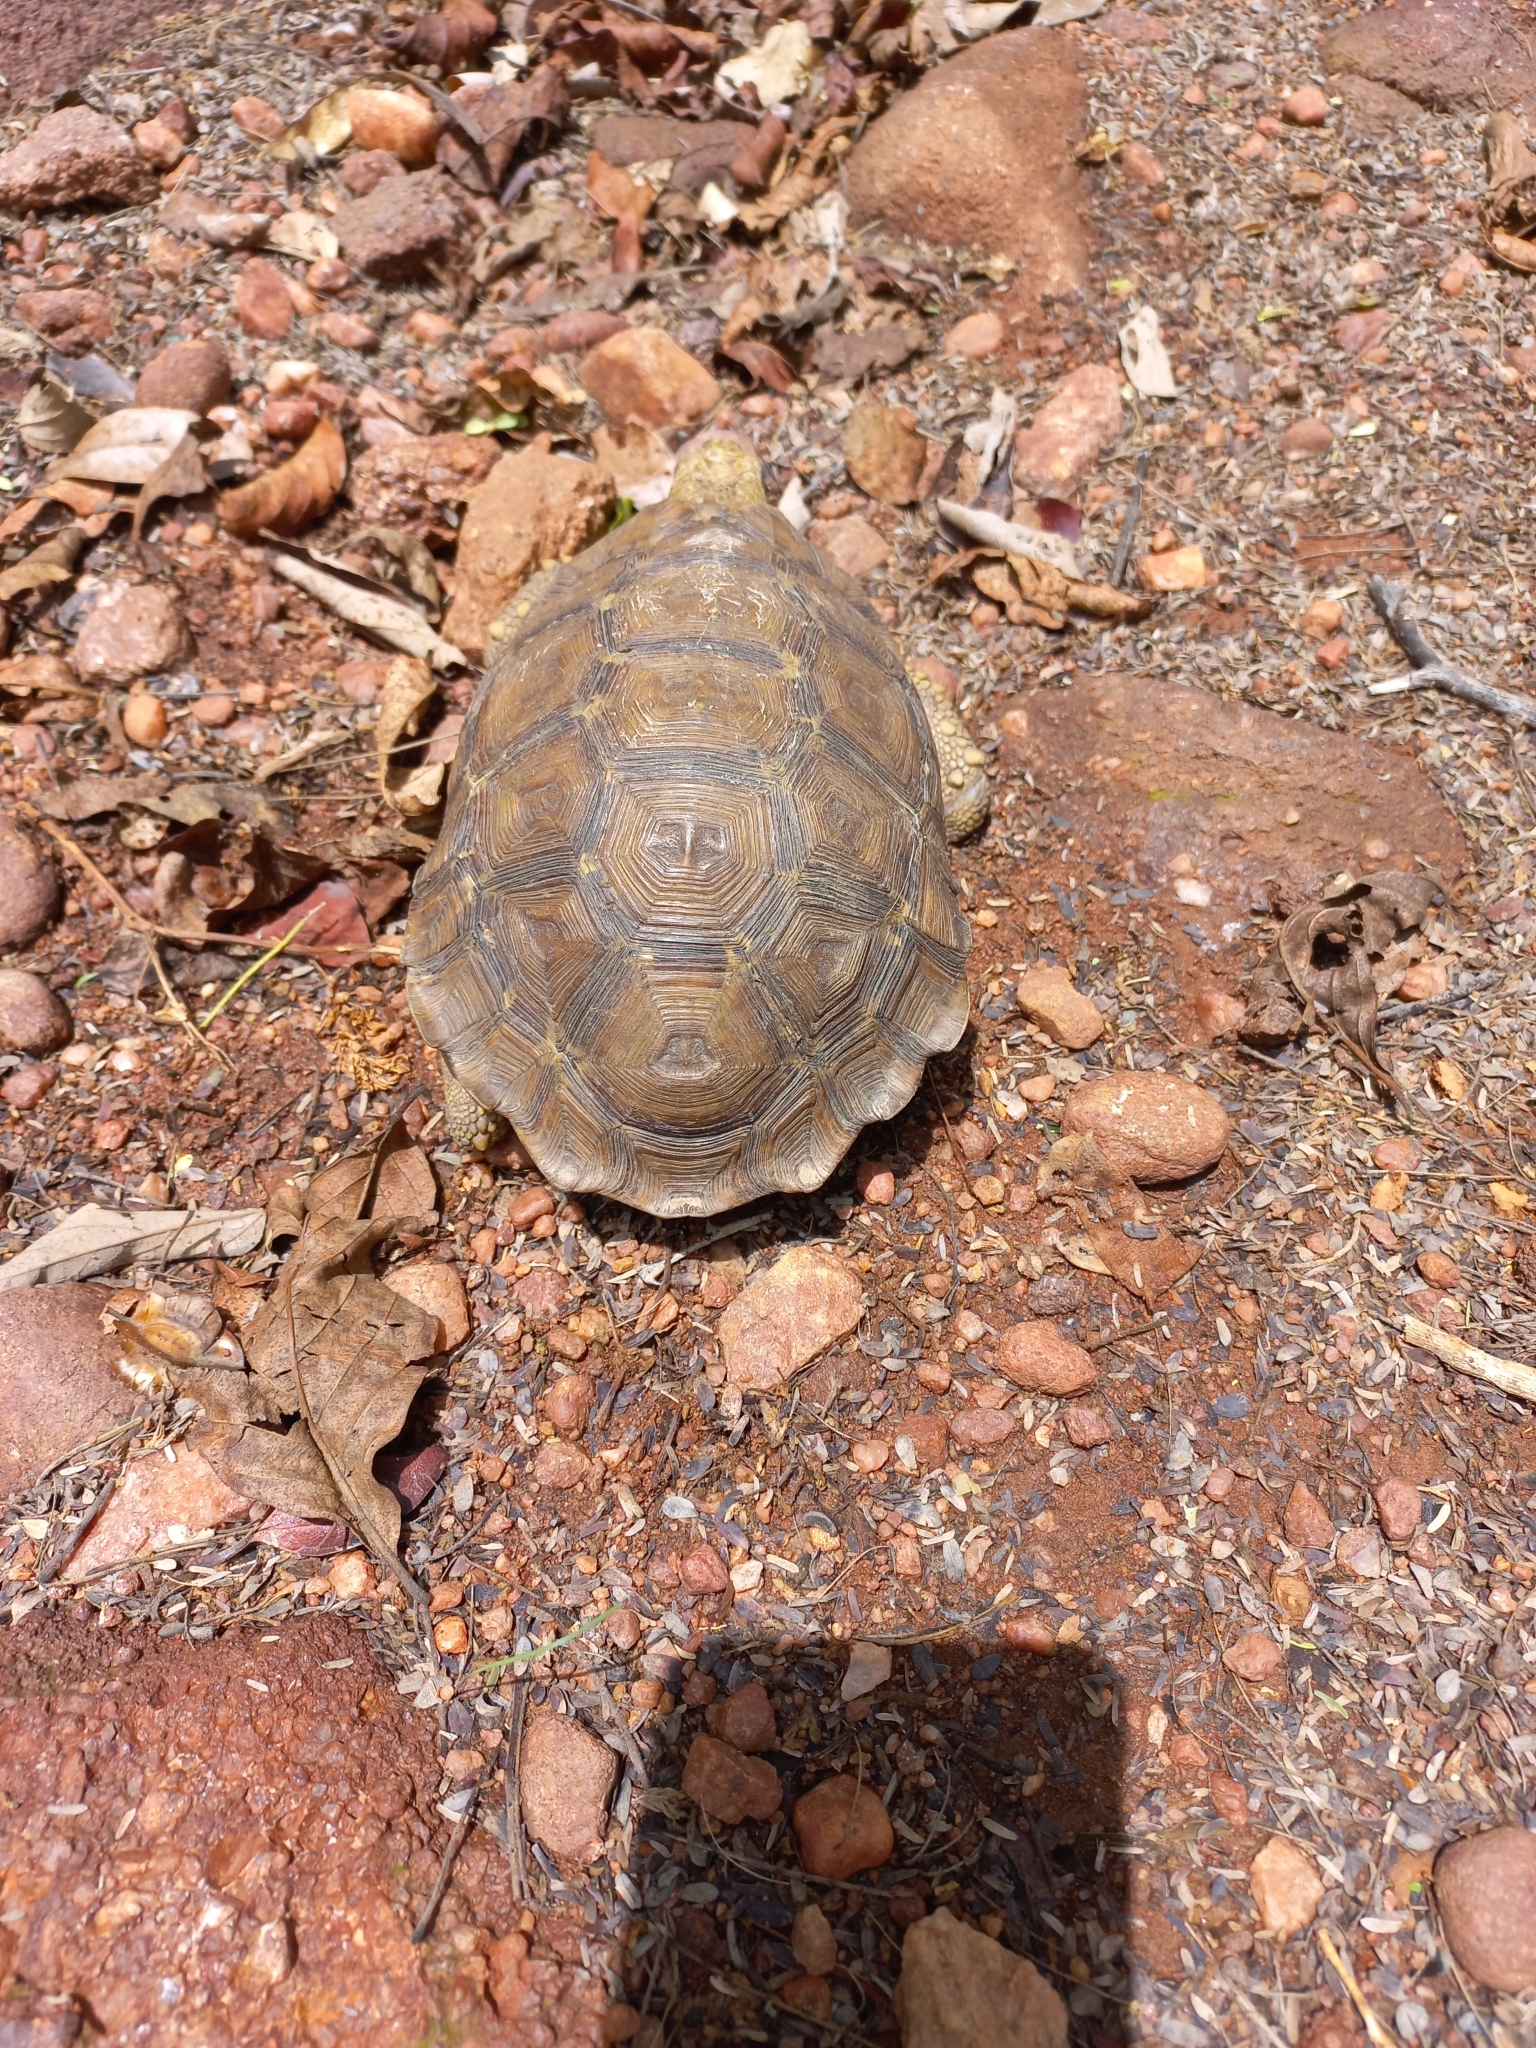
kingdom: Animalia
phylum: Chordata
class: Testudines
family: Testudinidae
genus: Kinixys
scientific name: Kinixys lobatsiana
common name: Lobatse hinge-back tortoise
